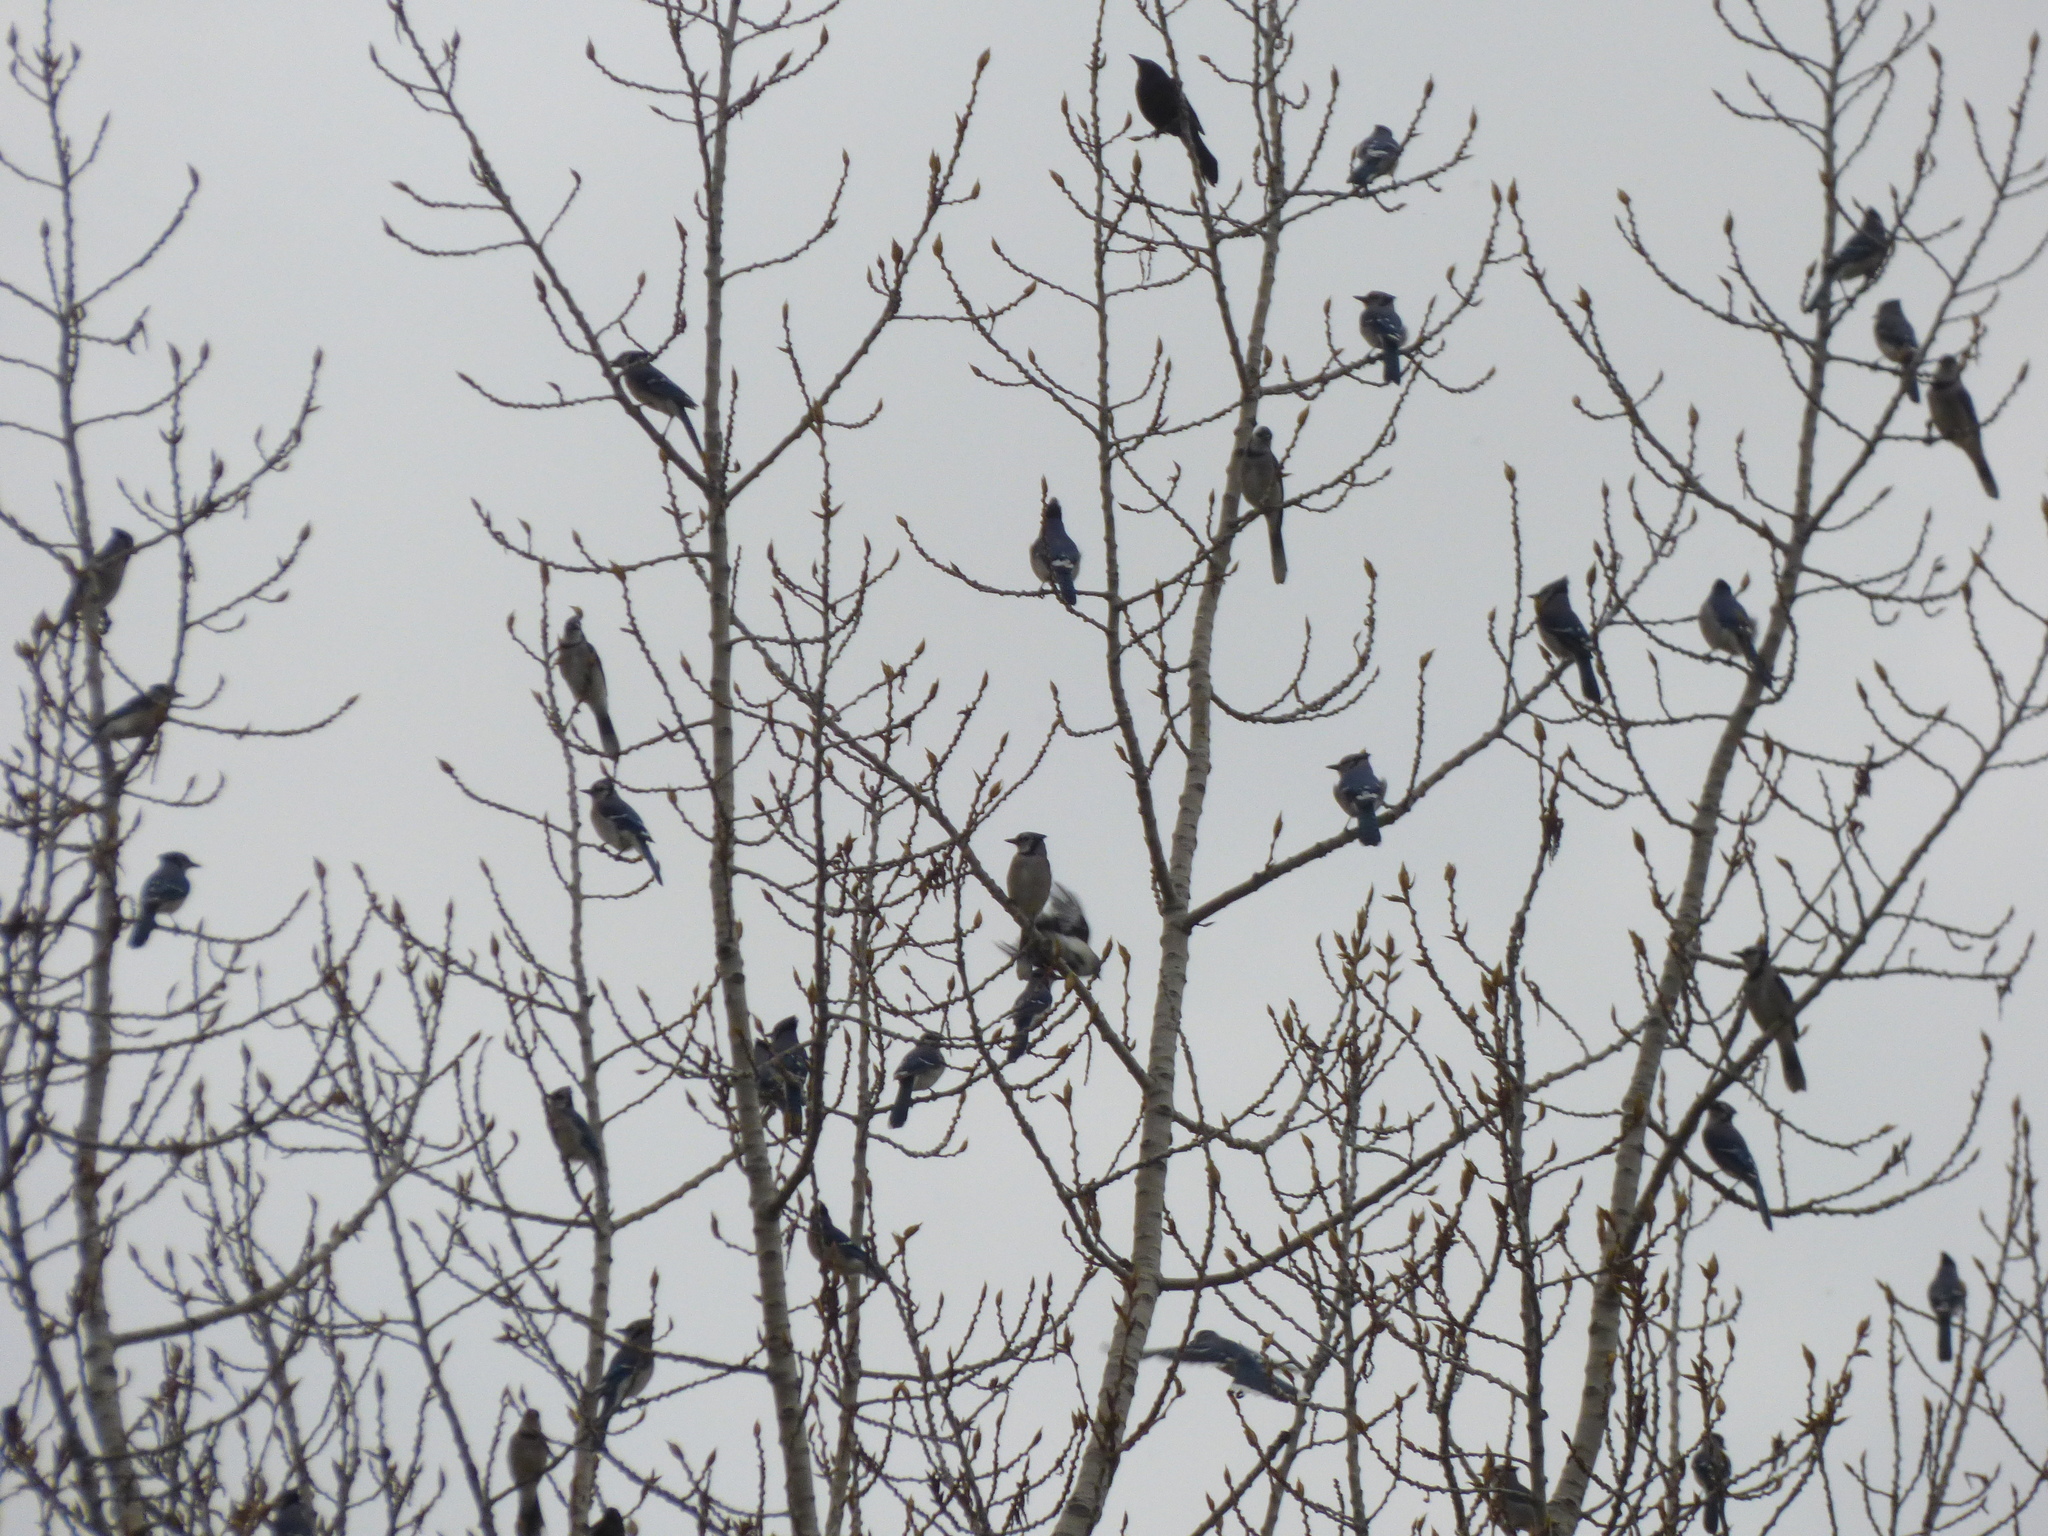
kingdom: Animalia
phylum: Chordata
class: Aves
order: Passeriformes
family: Corvidae
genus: Cyanocitta
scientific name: Cyanocitta cristata
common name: Blue jay
